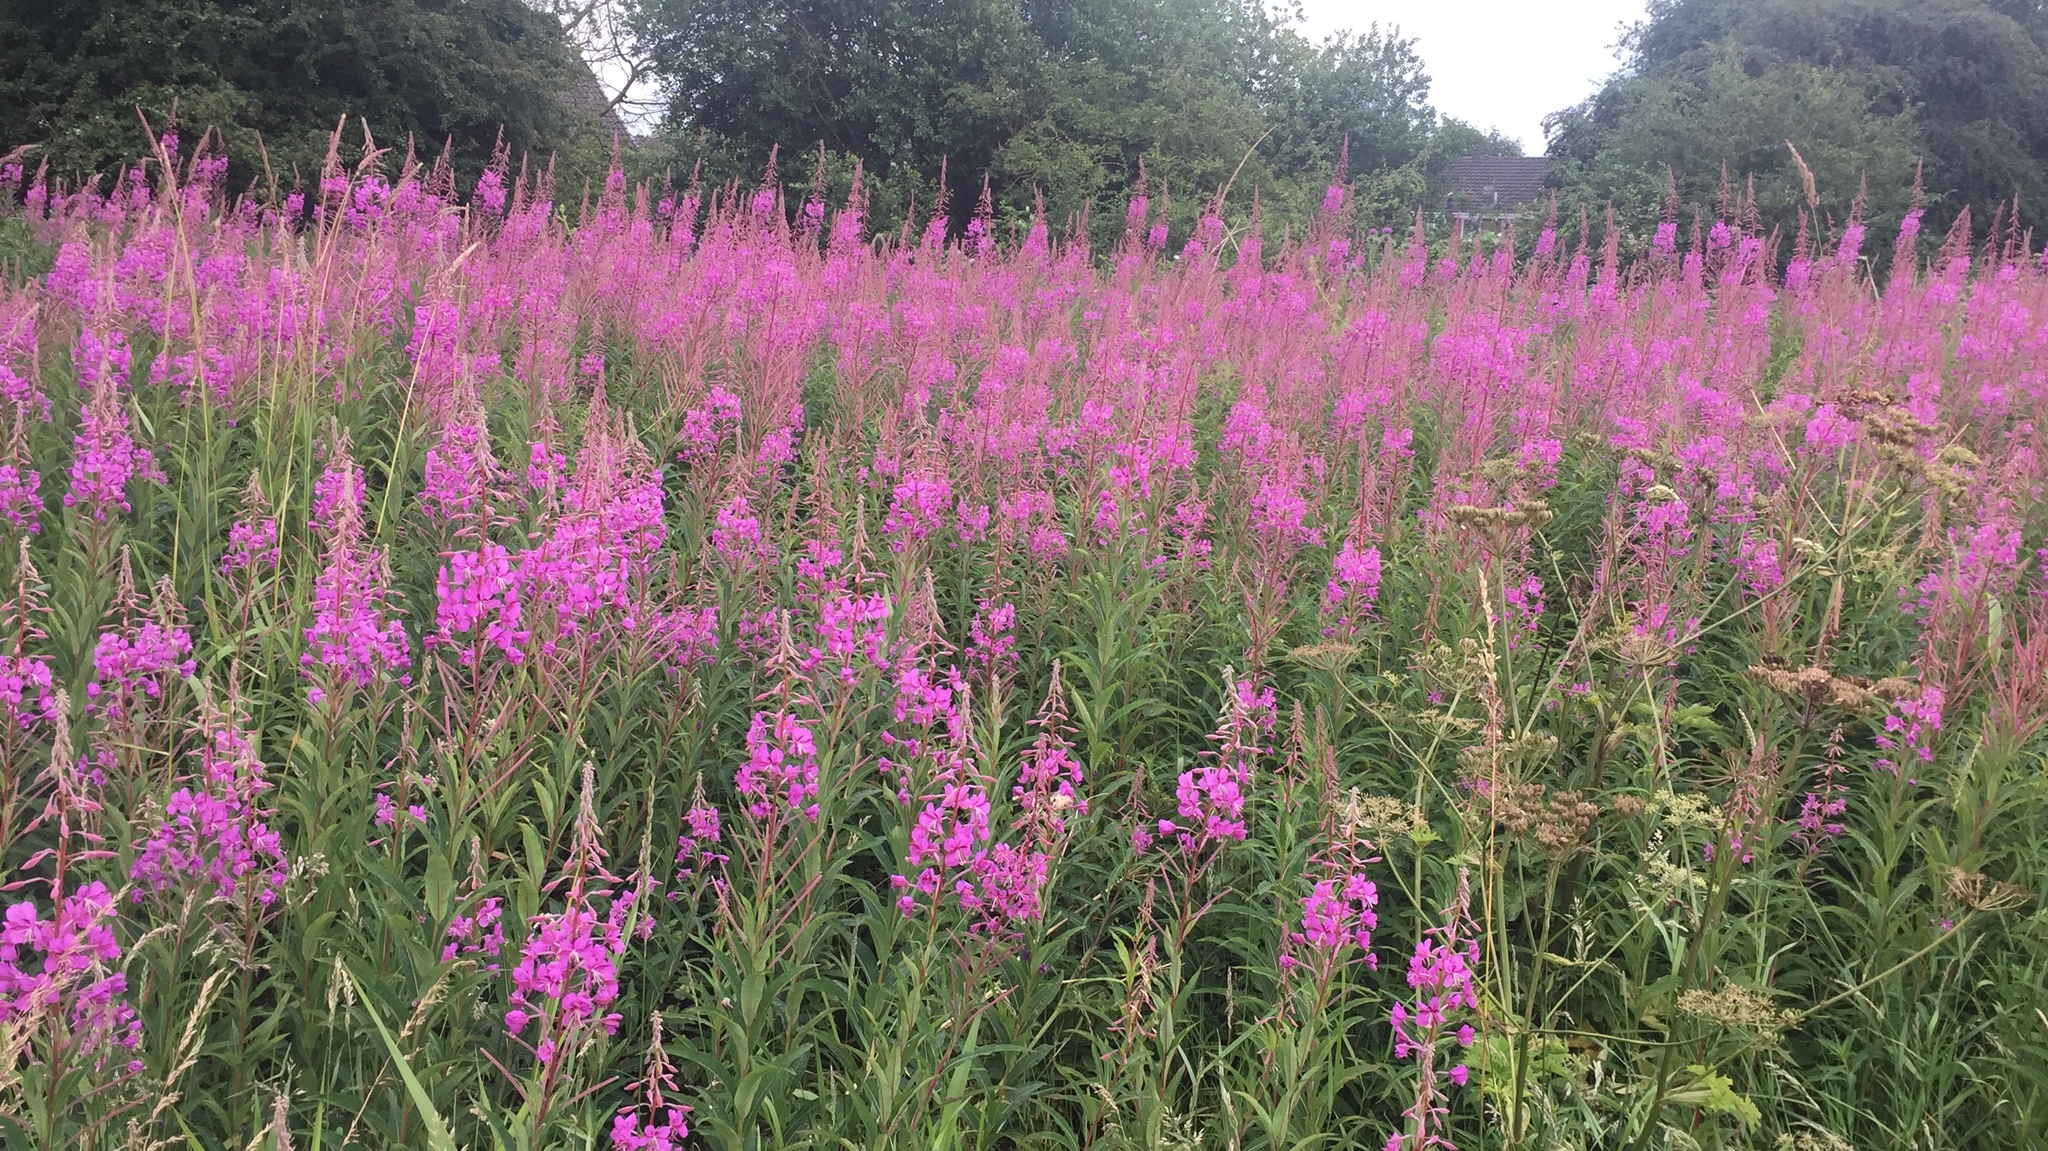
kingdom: Plantae
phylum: Tracheophyta
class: Magnoliopsida
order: Myrtales
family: Onagraceae
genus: Chamaenerion
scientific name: Chamaenerion angustifolium
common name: Fireweed
